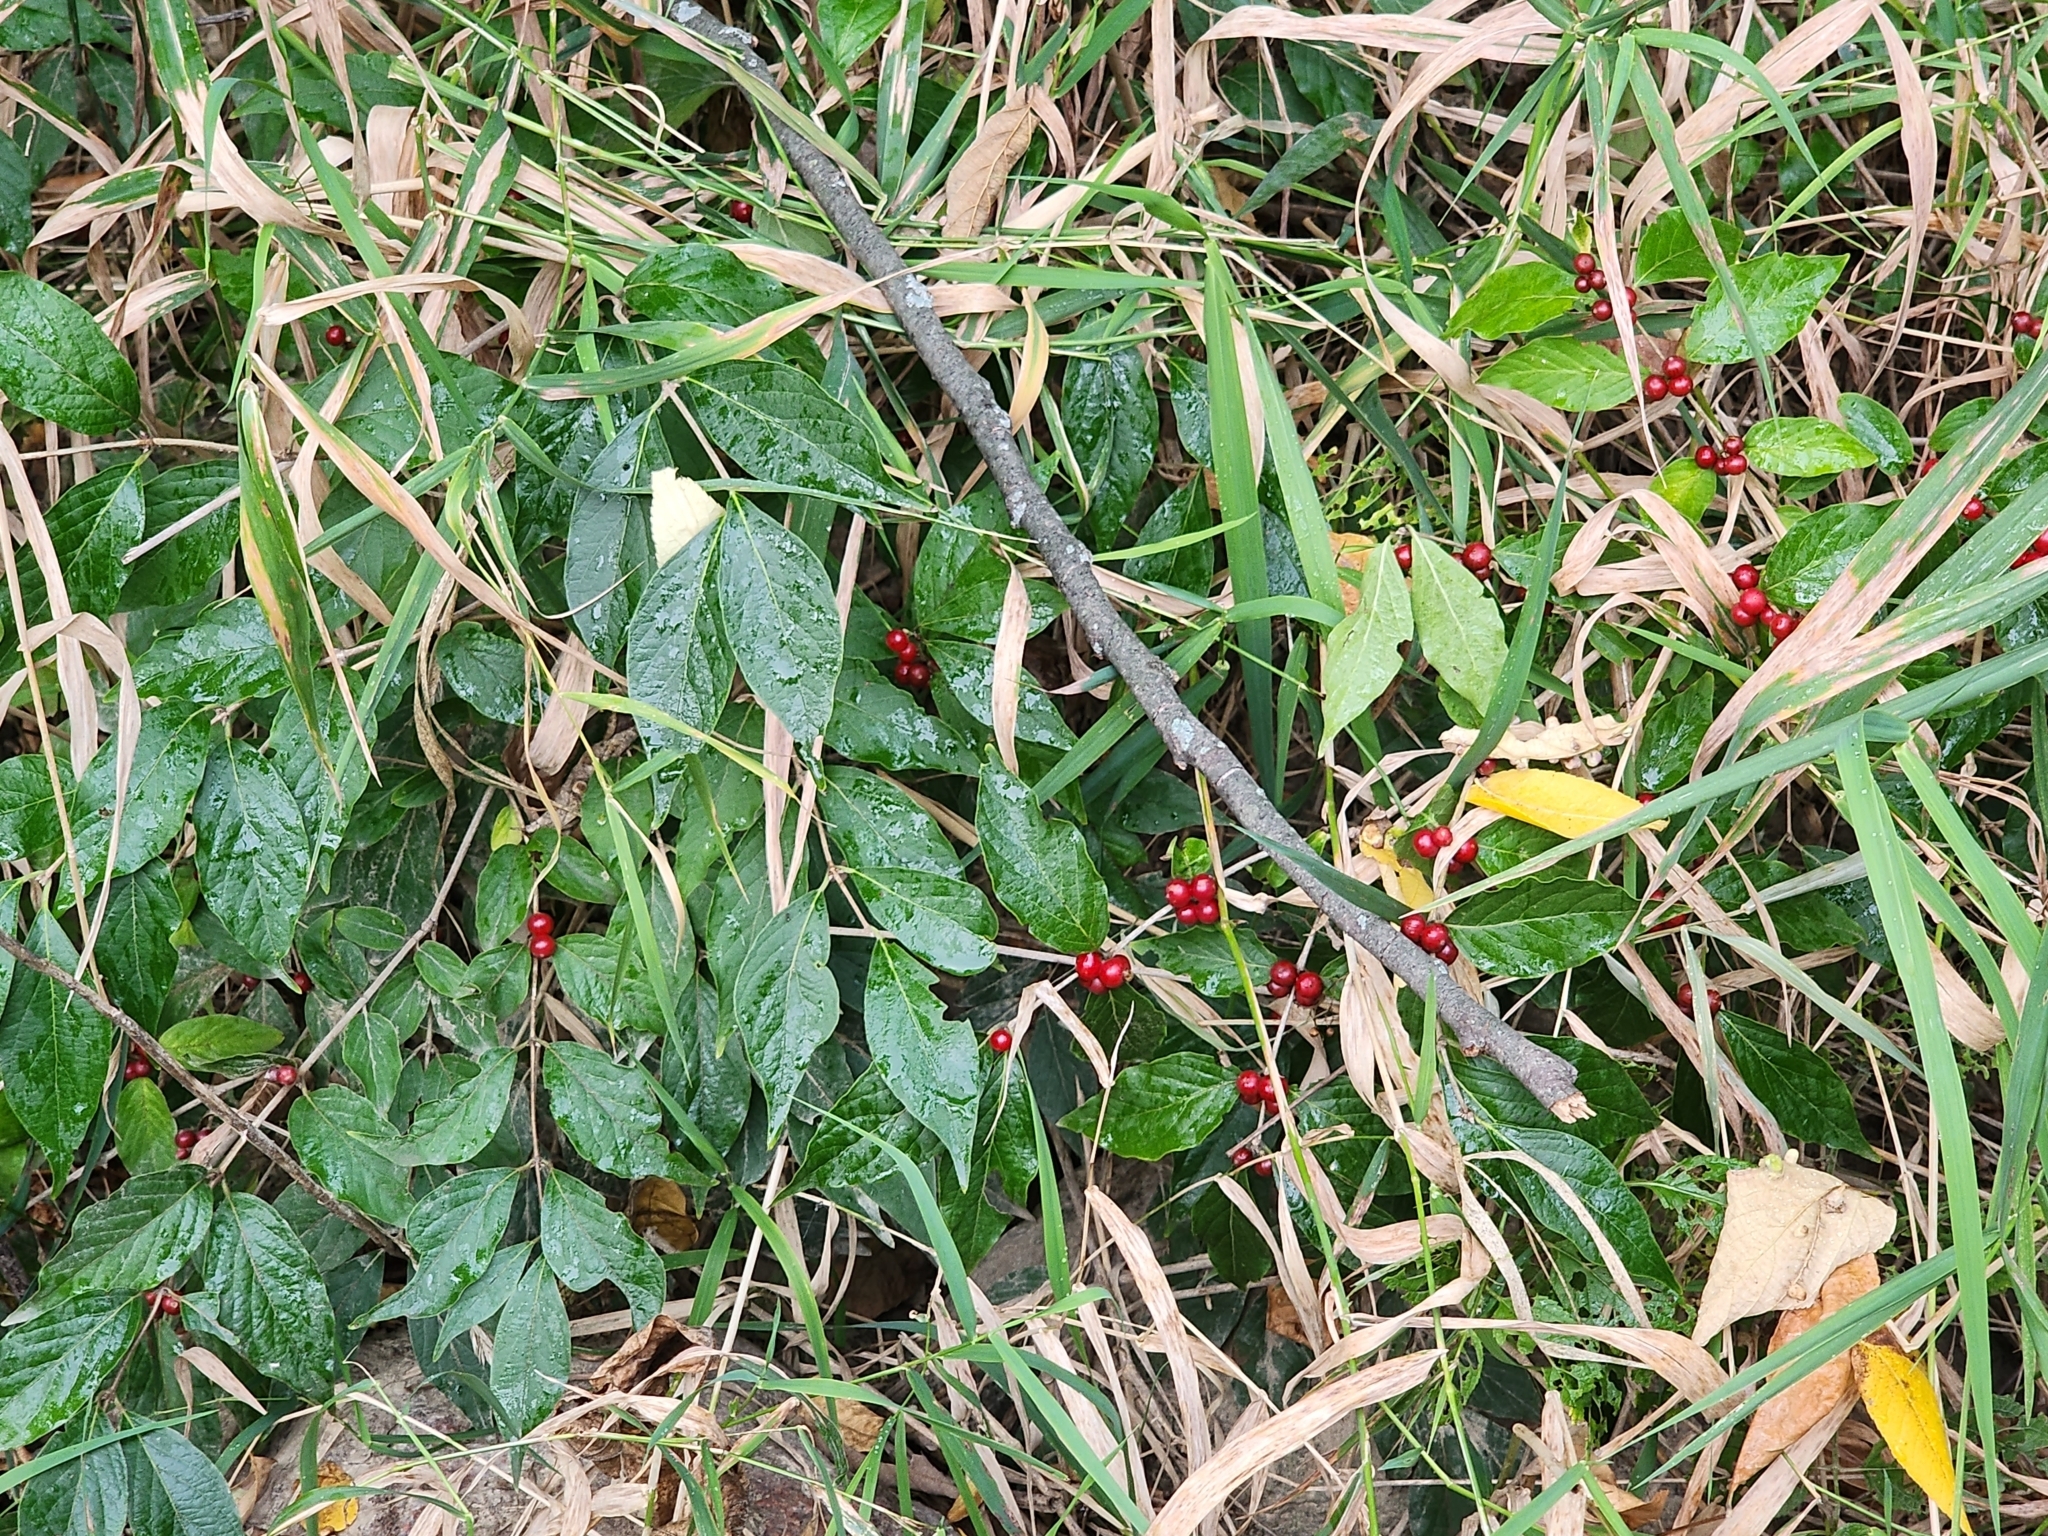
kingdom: Plantae
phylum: Tracheophyta
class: Magnoliopsida
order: Dipsacales
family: Caprifoliaceae
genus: Lonicera
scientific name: Lonicera maackii
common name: Amur honeysuckle
